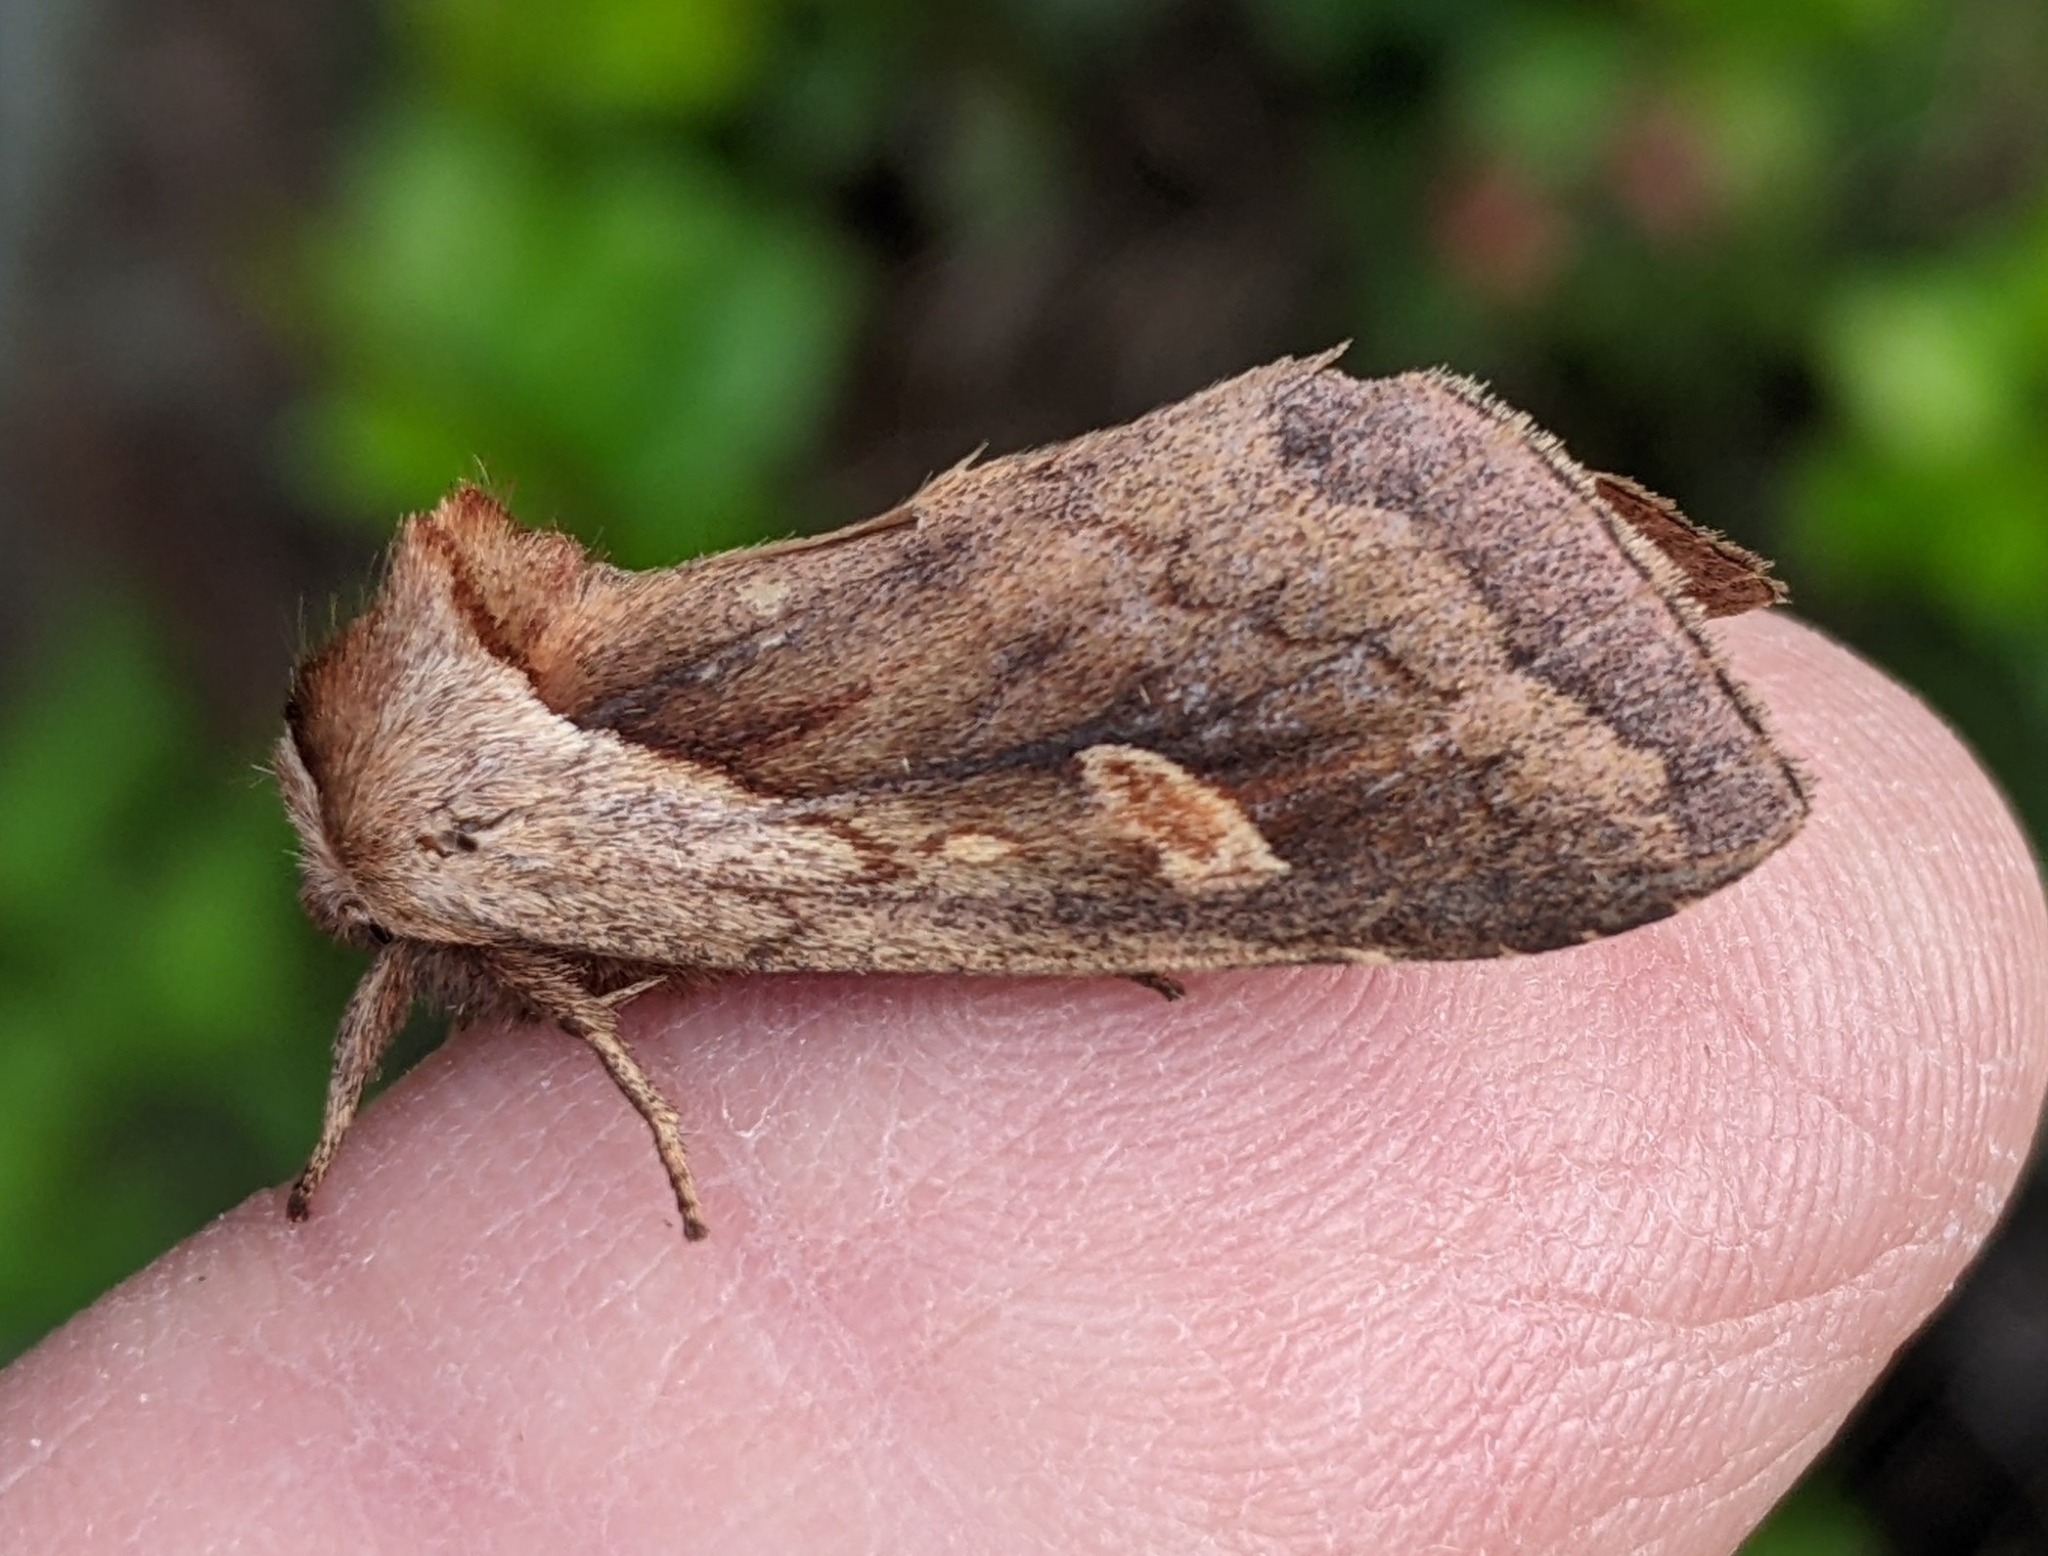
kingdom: Animalia
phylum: Arthropoda
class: Insecta
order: Lepidoptera
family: Noctuidae
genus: Bellura
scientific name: Bellura obliqua
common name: Cattail borer moth
